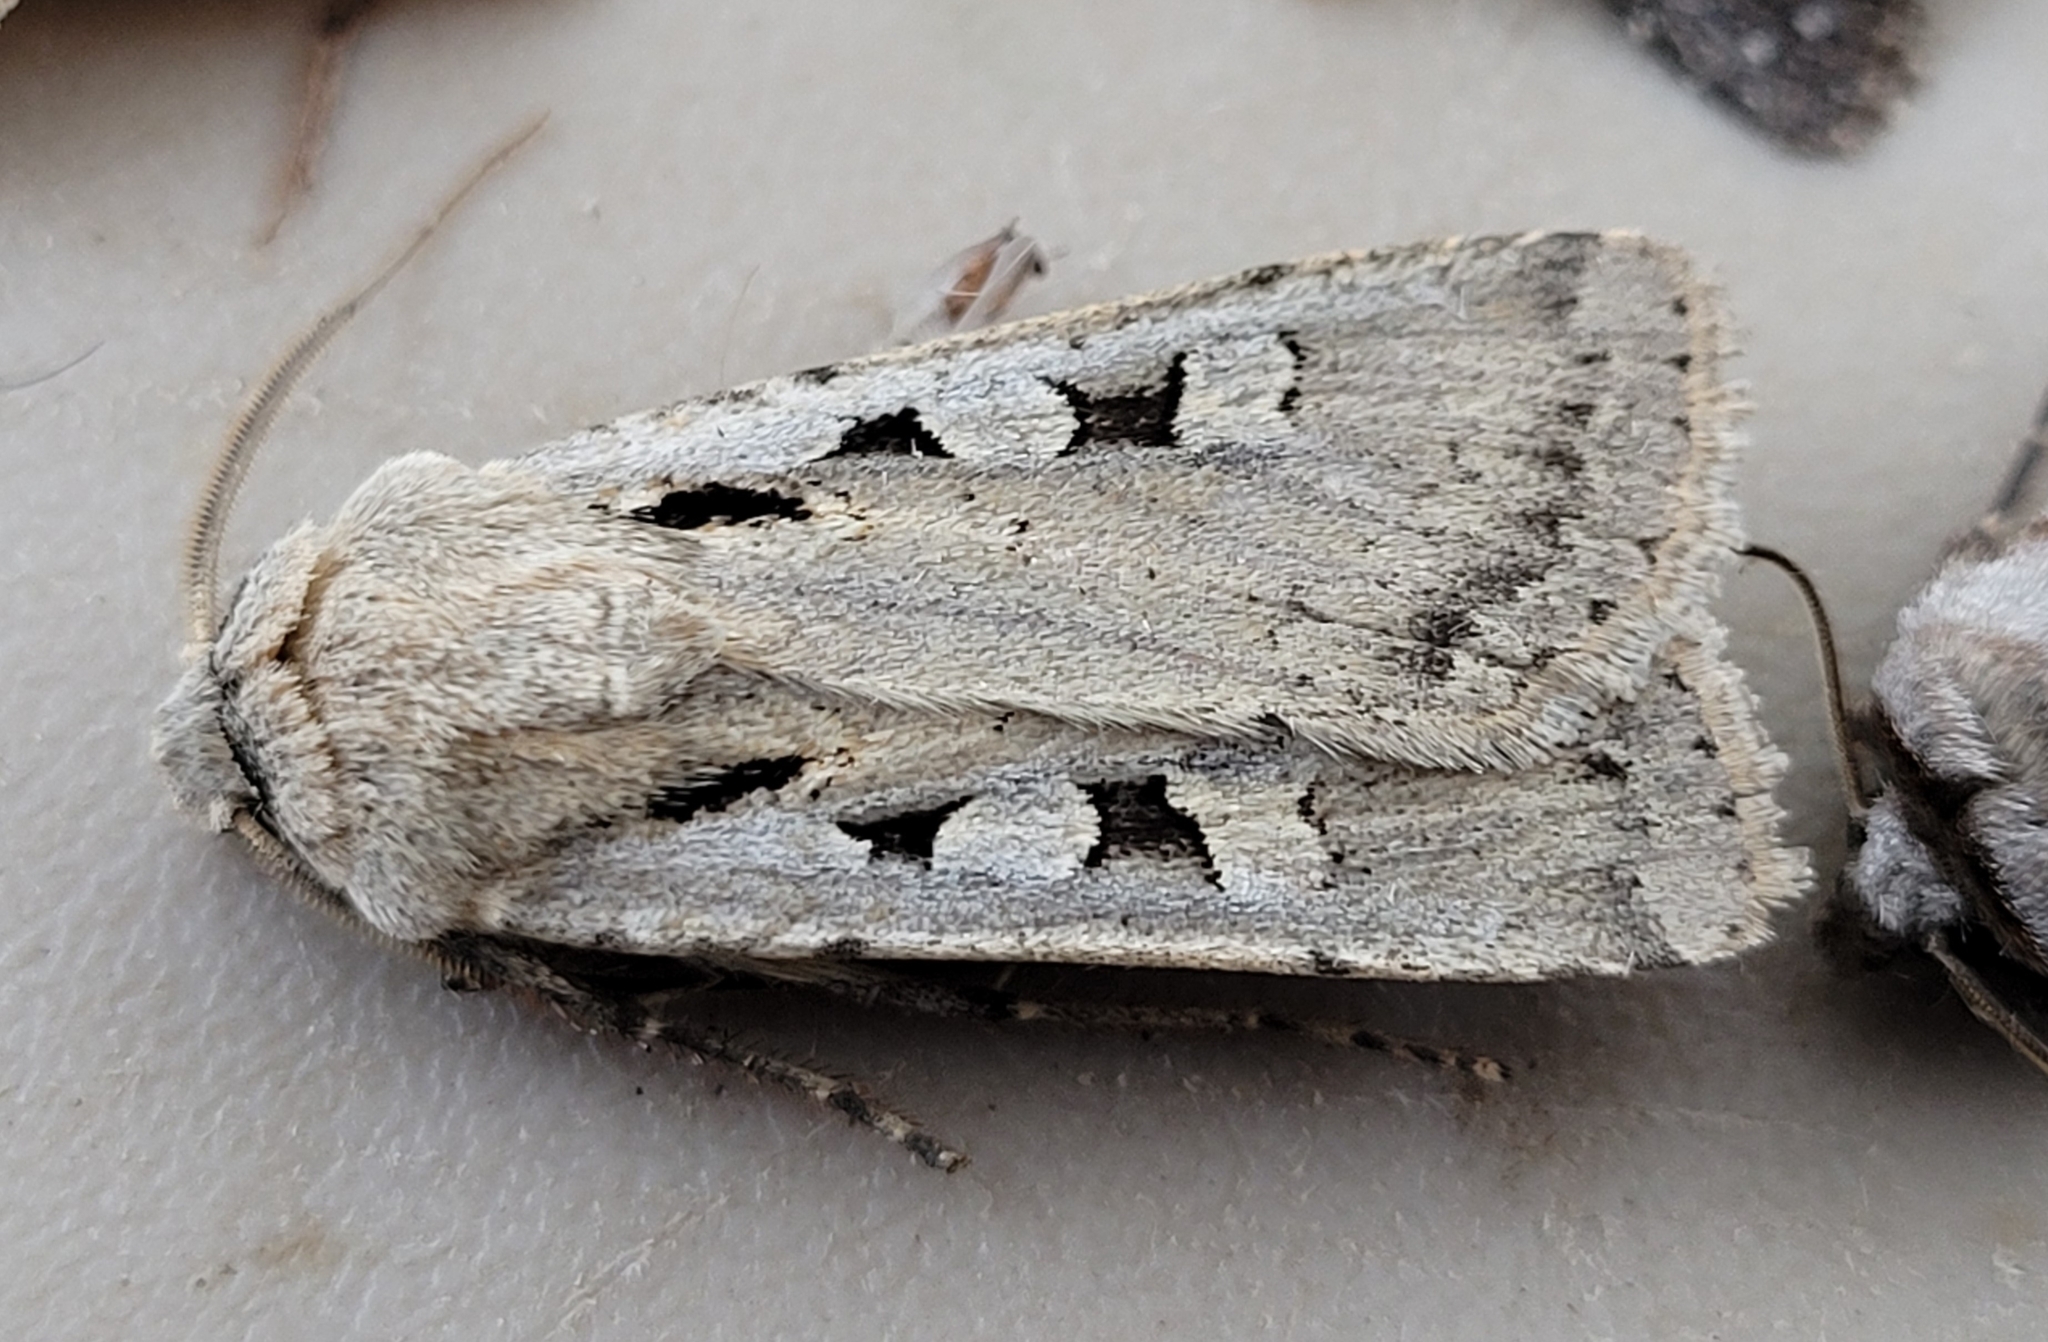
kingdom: Animalia
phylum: Arthropoda
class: Insecta
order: Lepidoptera
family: Noctuidae
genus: Euxoa
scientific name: Euxoa tristicula
